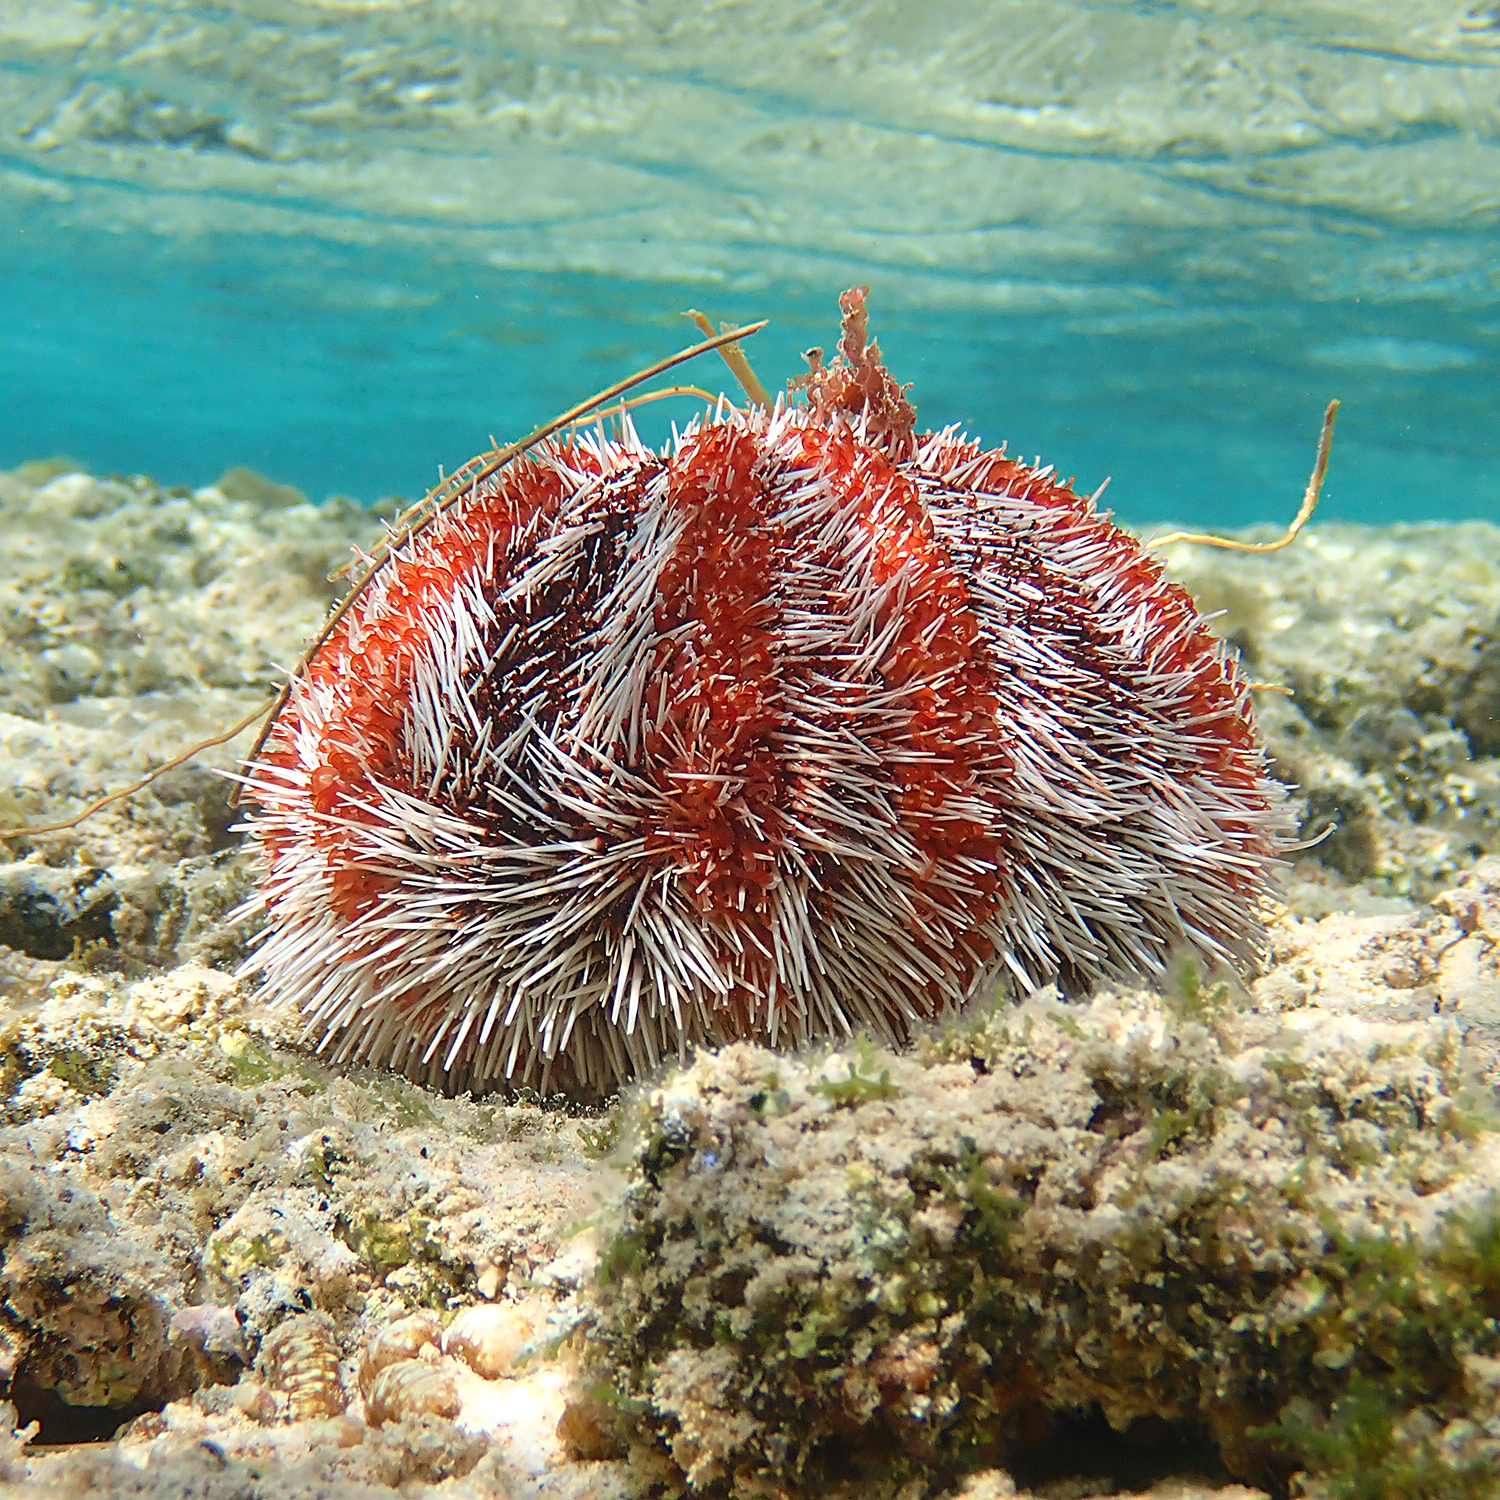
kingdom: Animalia
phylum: Echinodermata
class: Echinoidea
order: Camarodonta
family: Toxopneustidae
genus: Tripneustes
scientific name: Tripneustes gratilla
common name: Bischofsmützenseeigel
